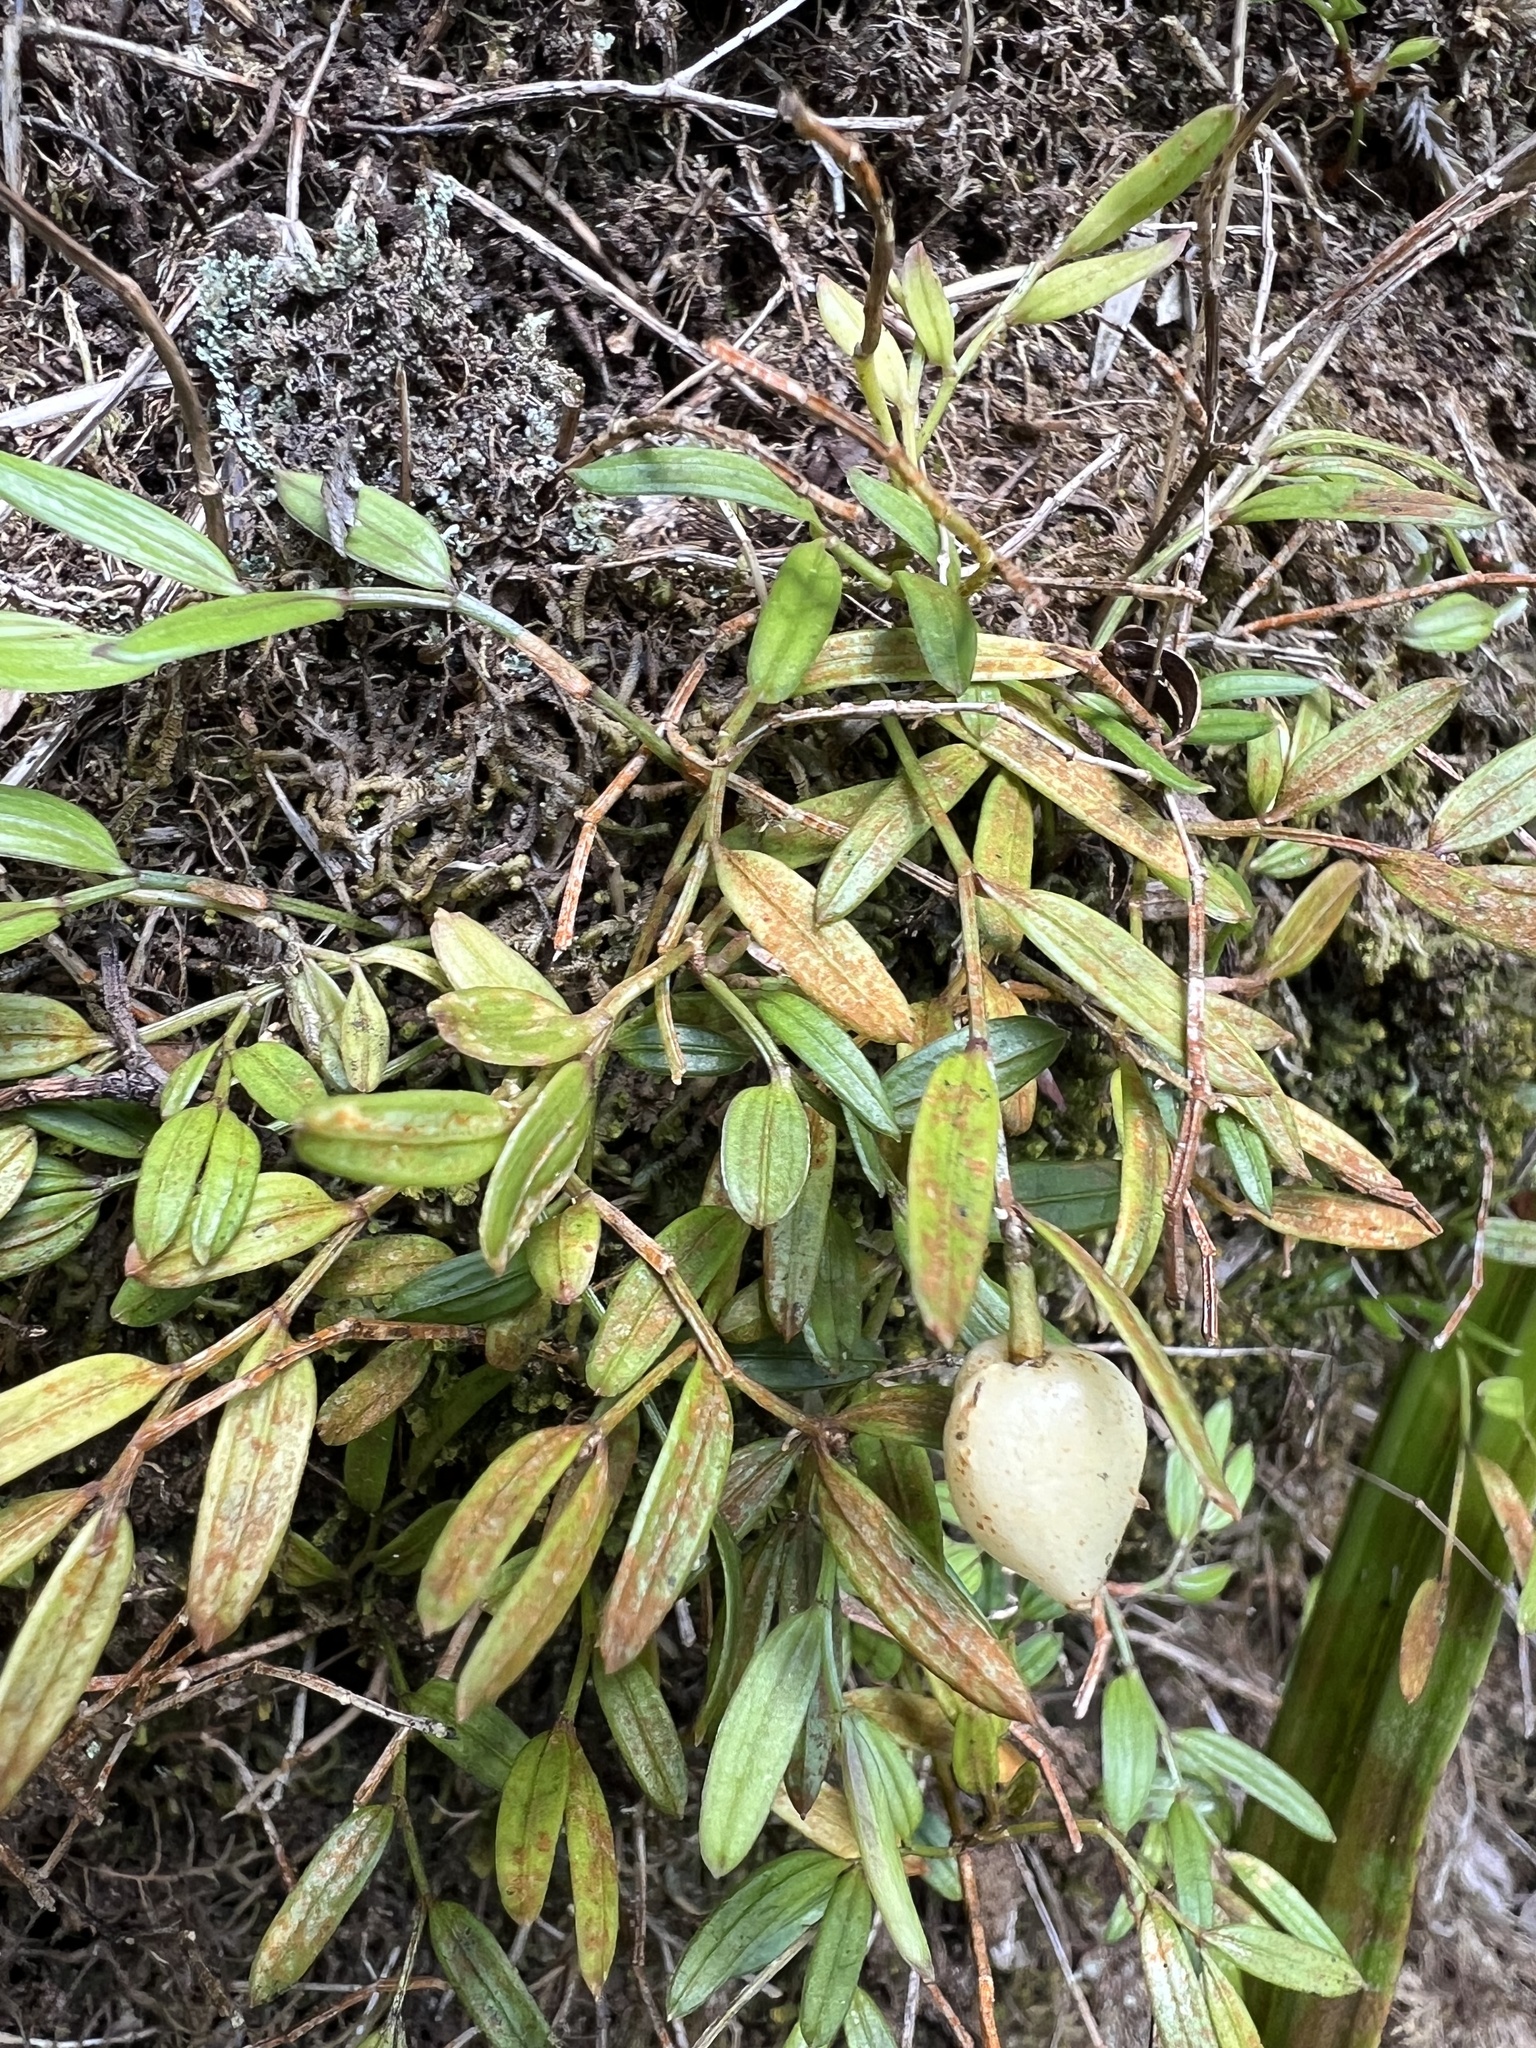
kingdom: Plantae
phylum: Tracheophyta
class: Liliopsida
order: Liliales
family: Alstroemeriaceae
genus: Luzuriaga
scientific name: Luzuriaga parviflora
